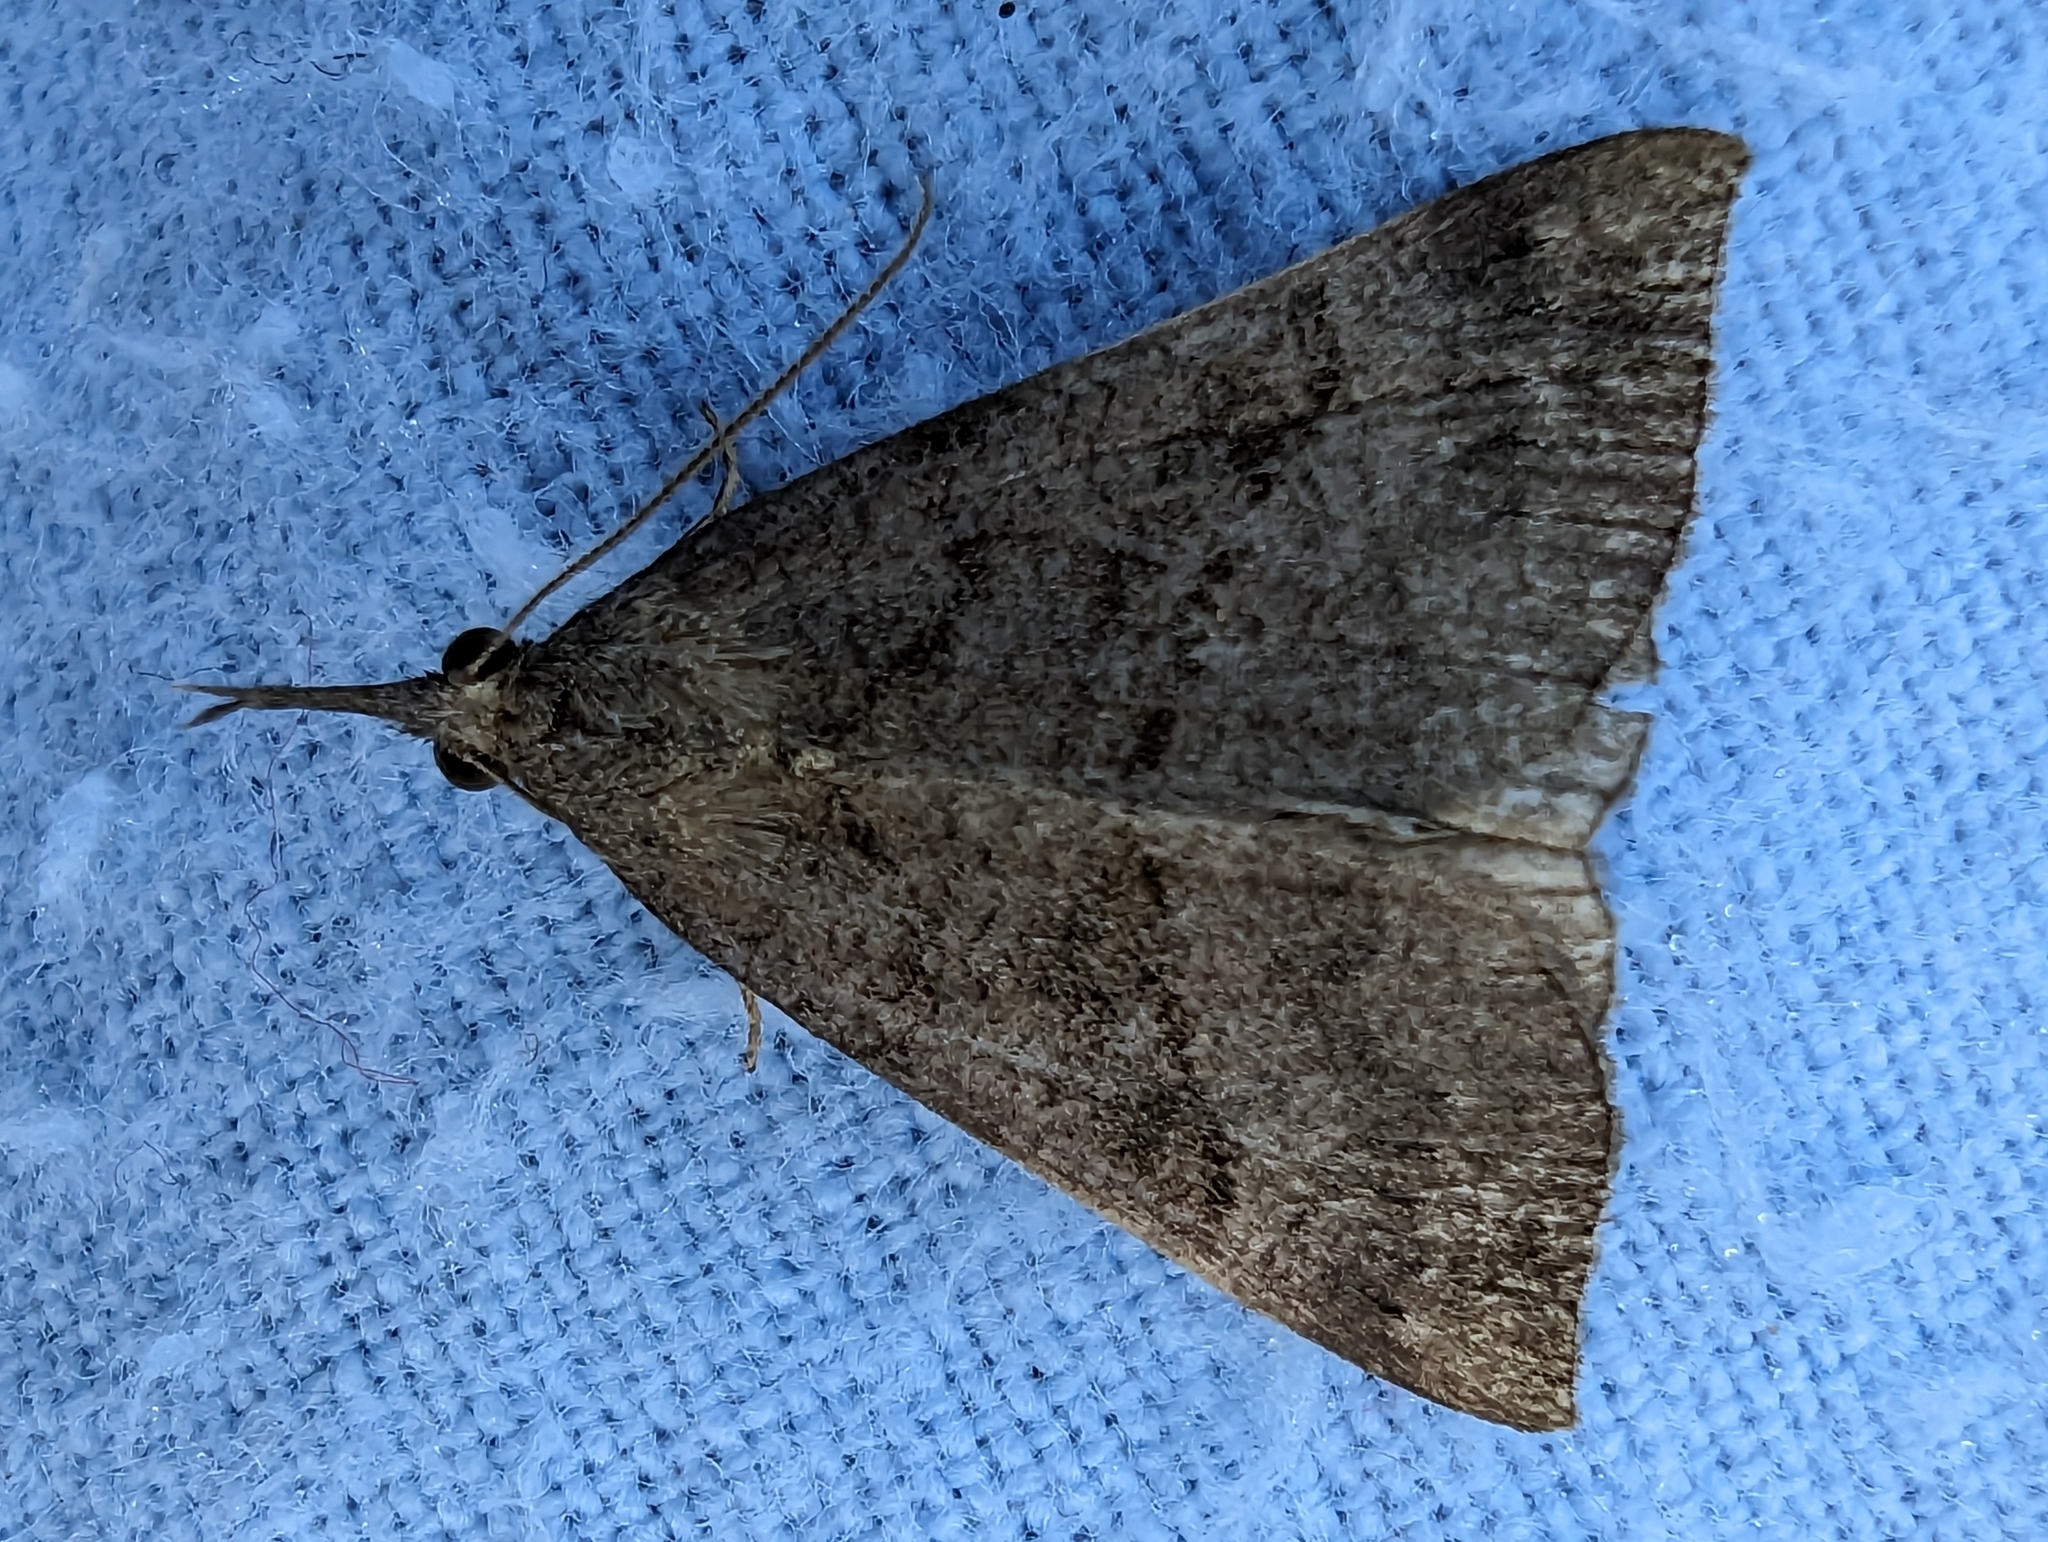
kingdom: Animalia
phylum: Arthropoda
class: Insecta
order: Lepidoptera
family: Erebidae
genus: Hypena
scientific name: Hypena proboscidalis
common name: Snout
